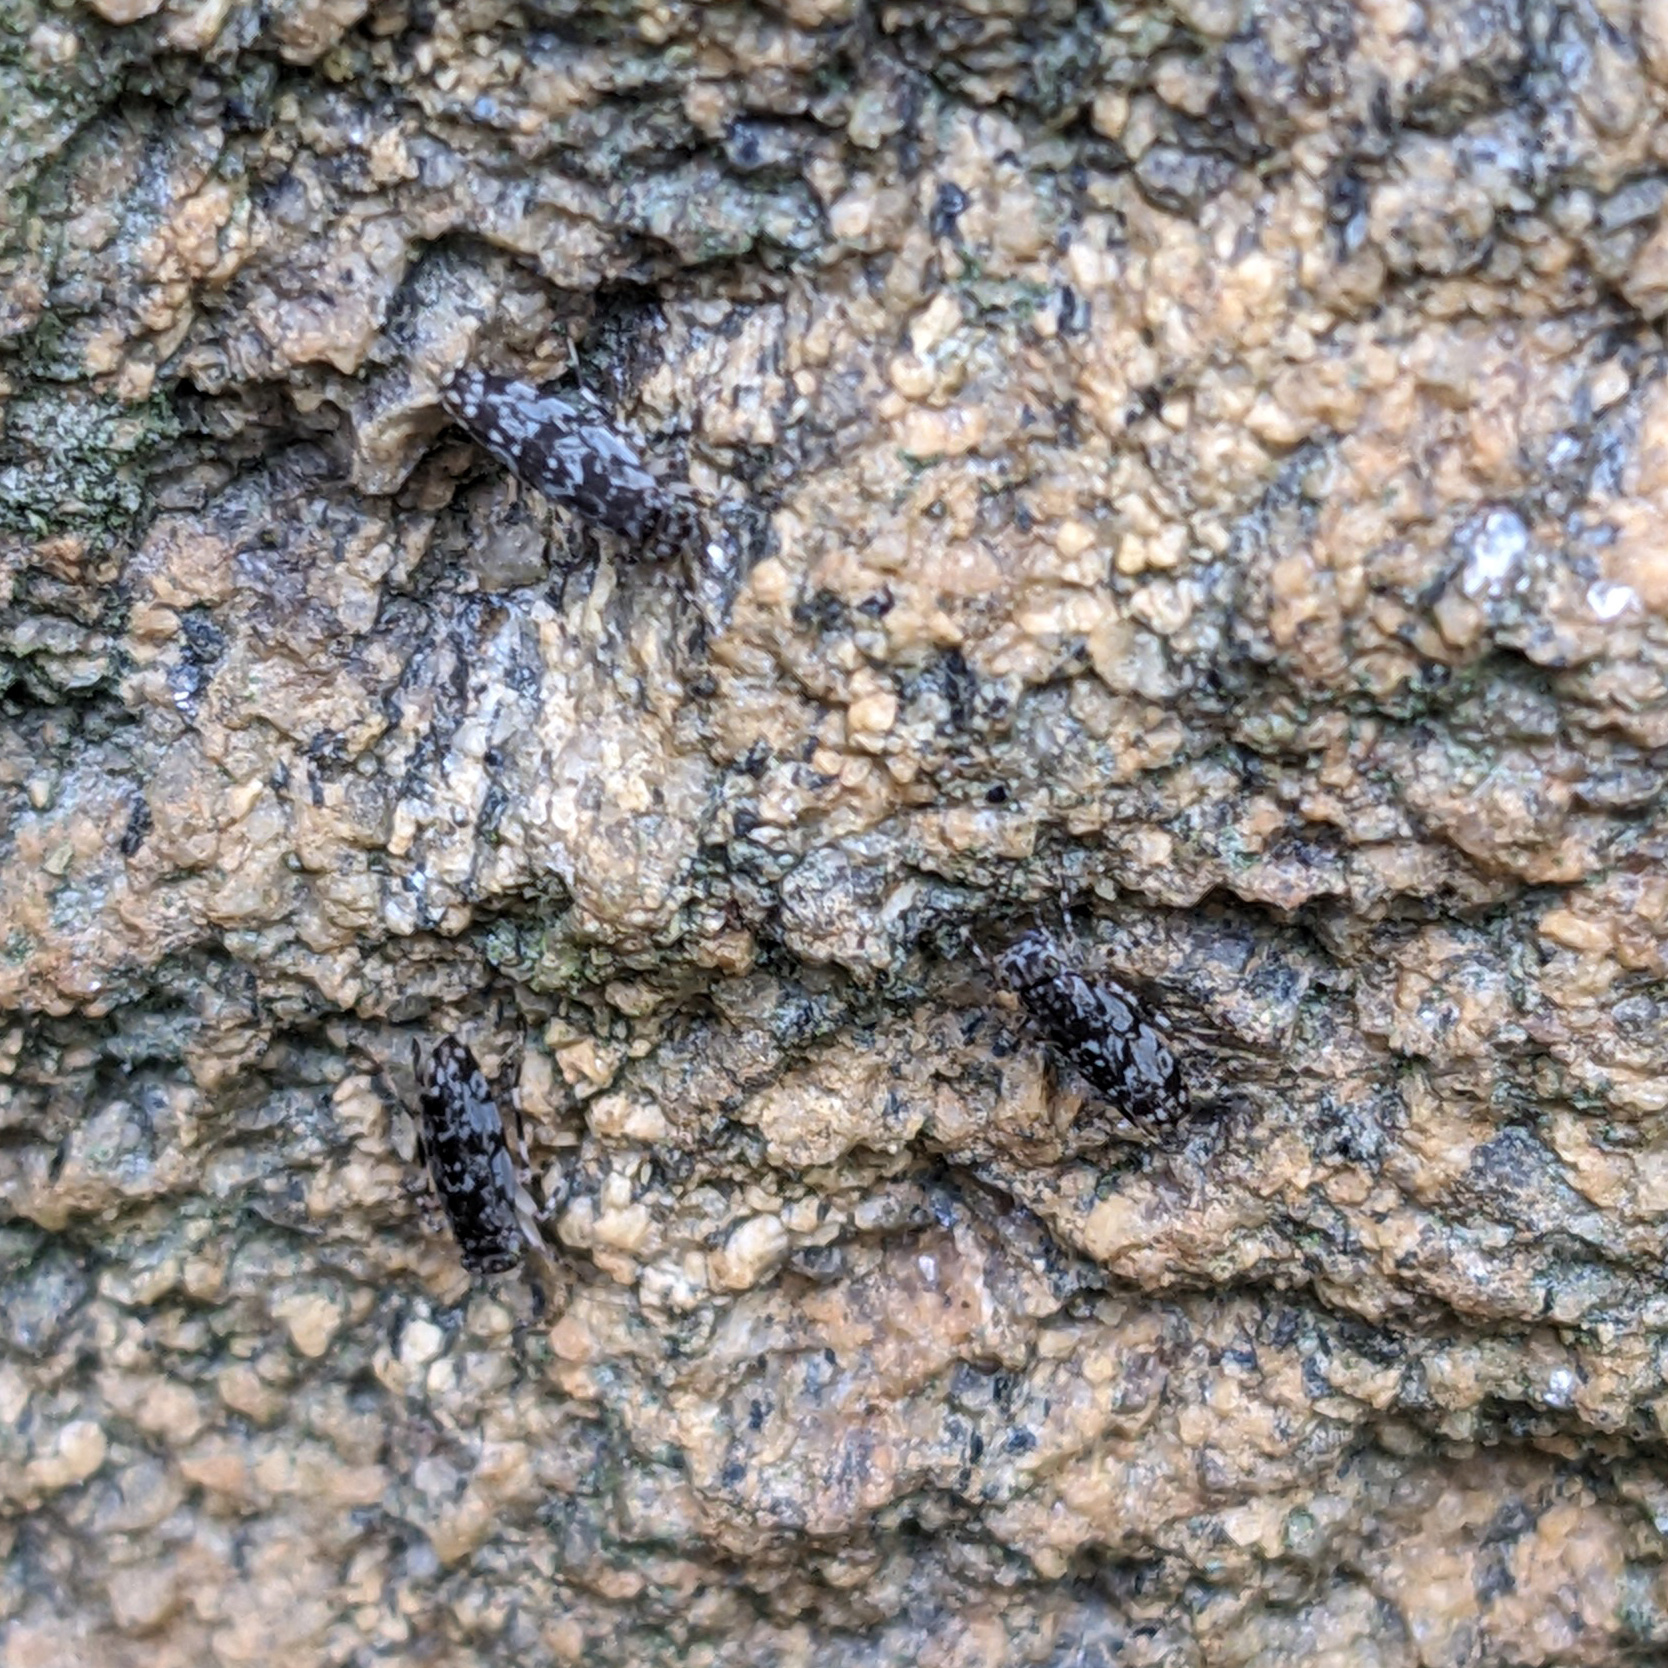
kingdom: Animalia
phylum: Arthropoda
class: Insecta
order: Psocodea
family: Amphientomidae
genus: Stimulopalpus
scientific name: Stimulopalpus japonicus
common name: Tropical bark louse
